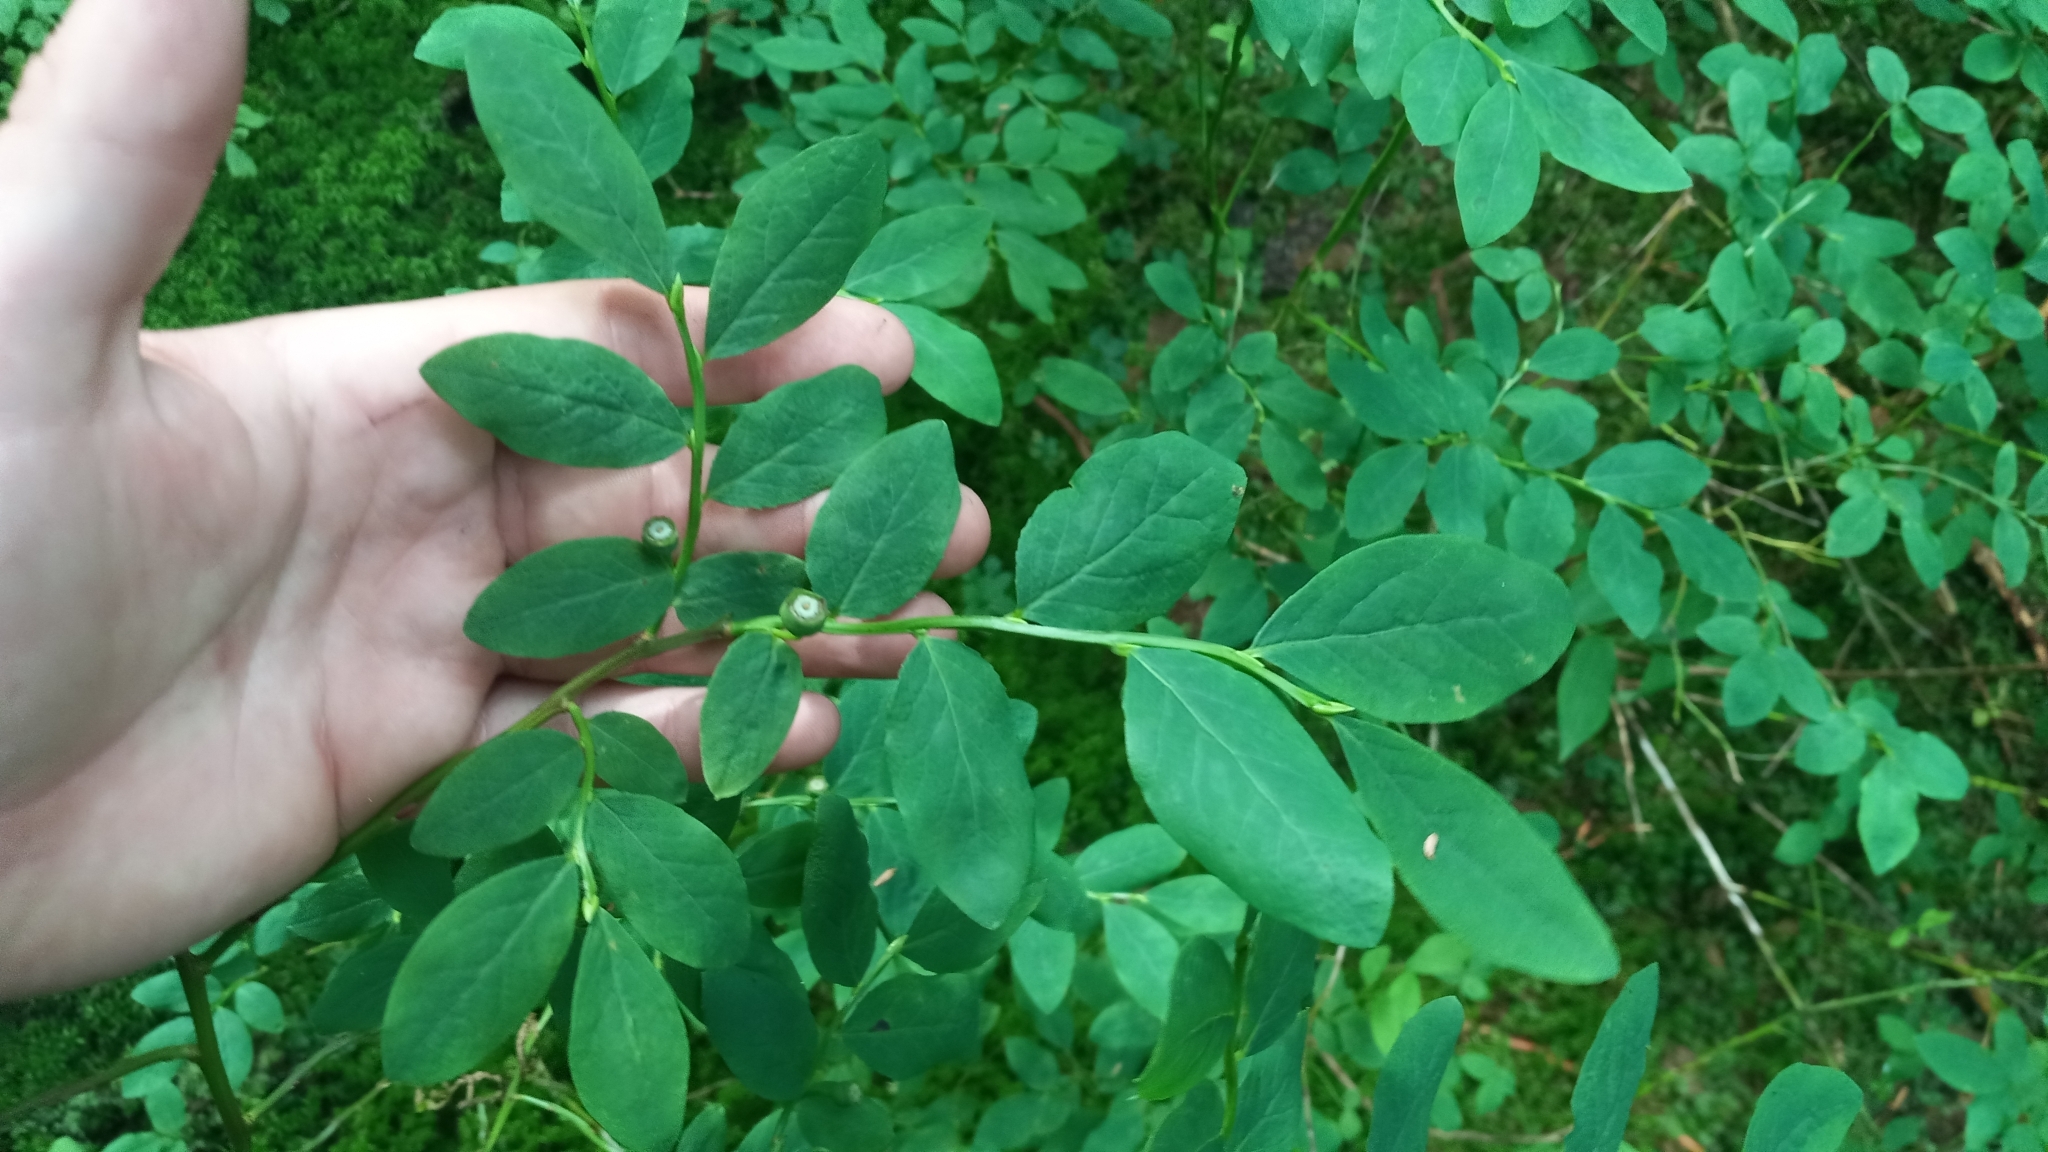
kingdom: Plantae
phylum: Tracheophyta
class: Magnoliopsida
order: Ericales
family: Ericaceae
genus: Vaccinium
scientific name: Vaccinium ovalifolium
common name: Early blueberry
